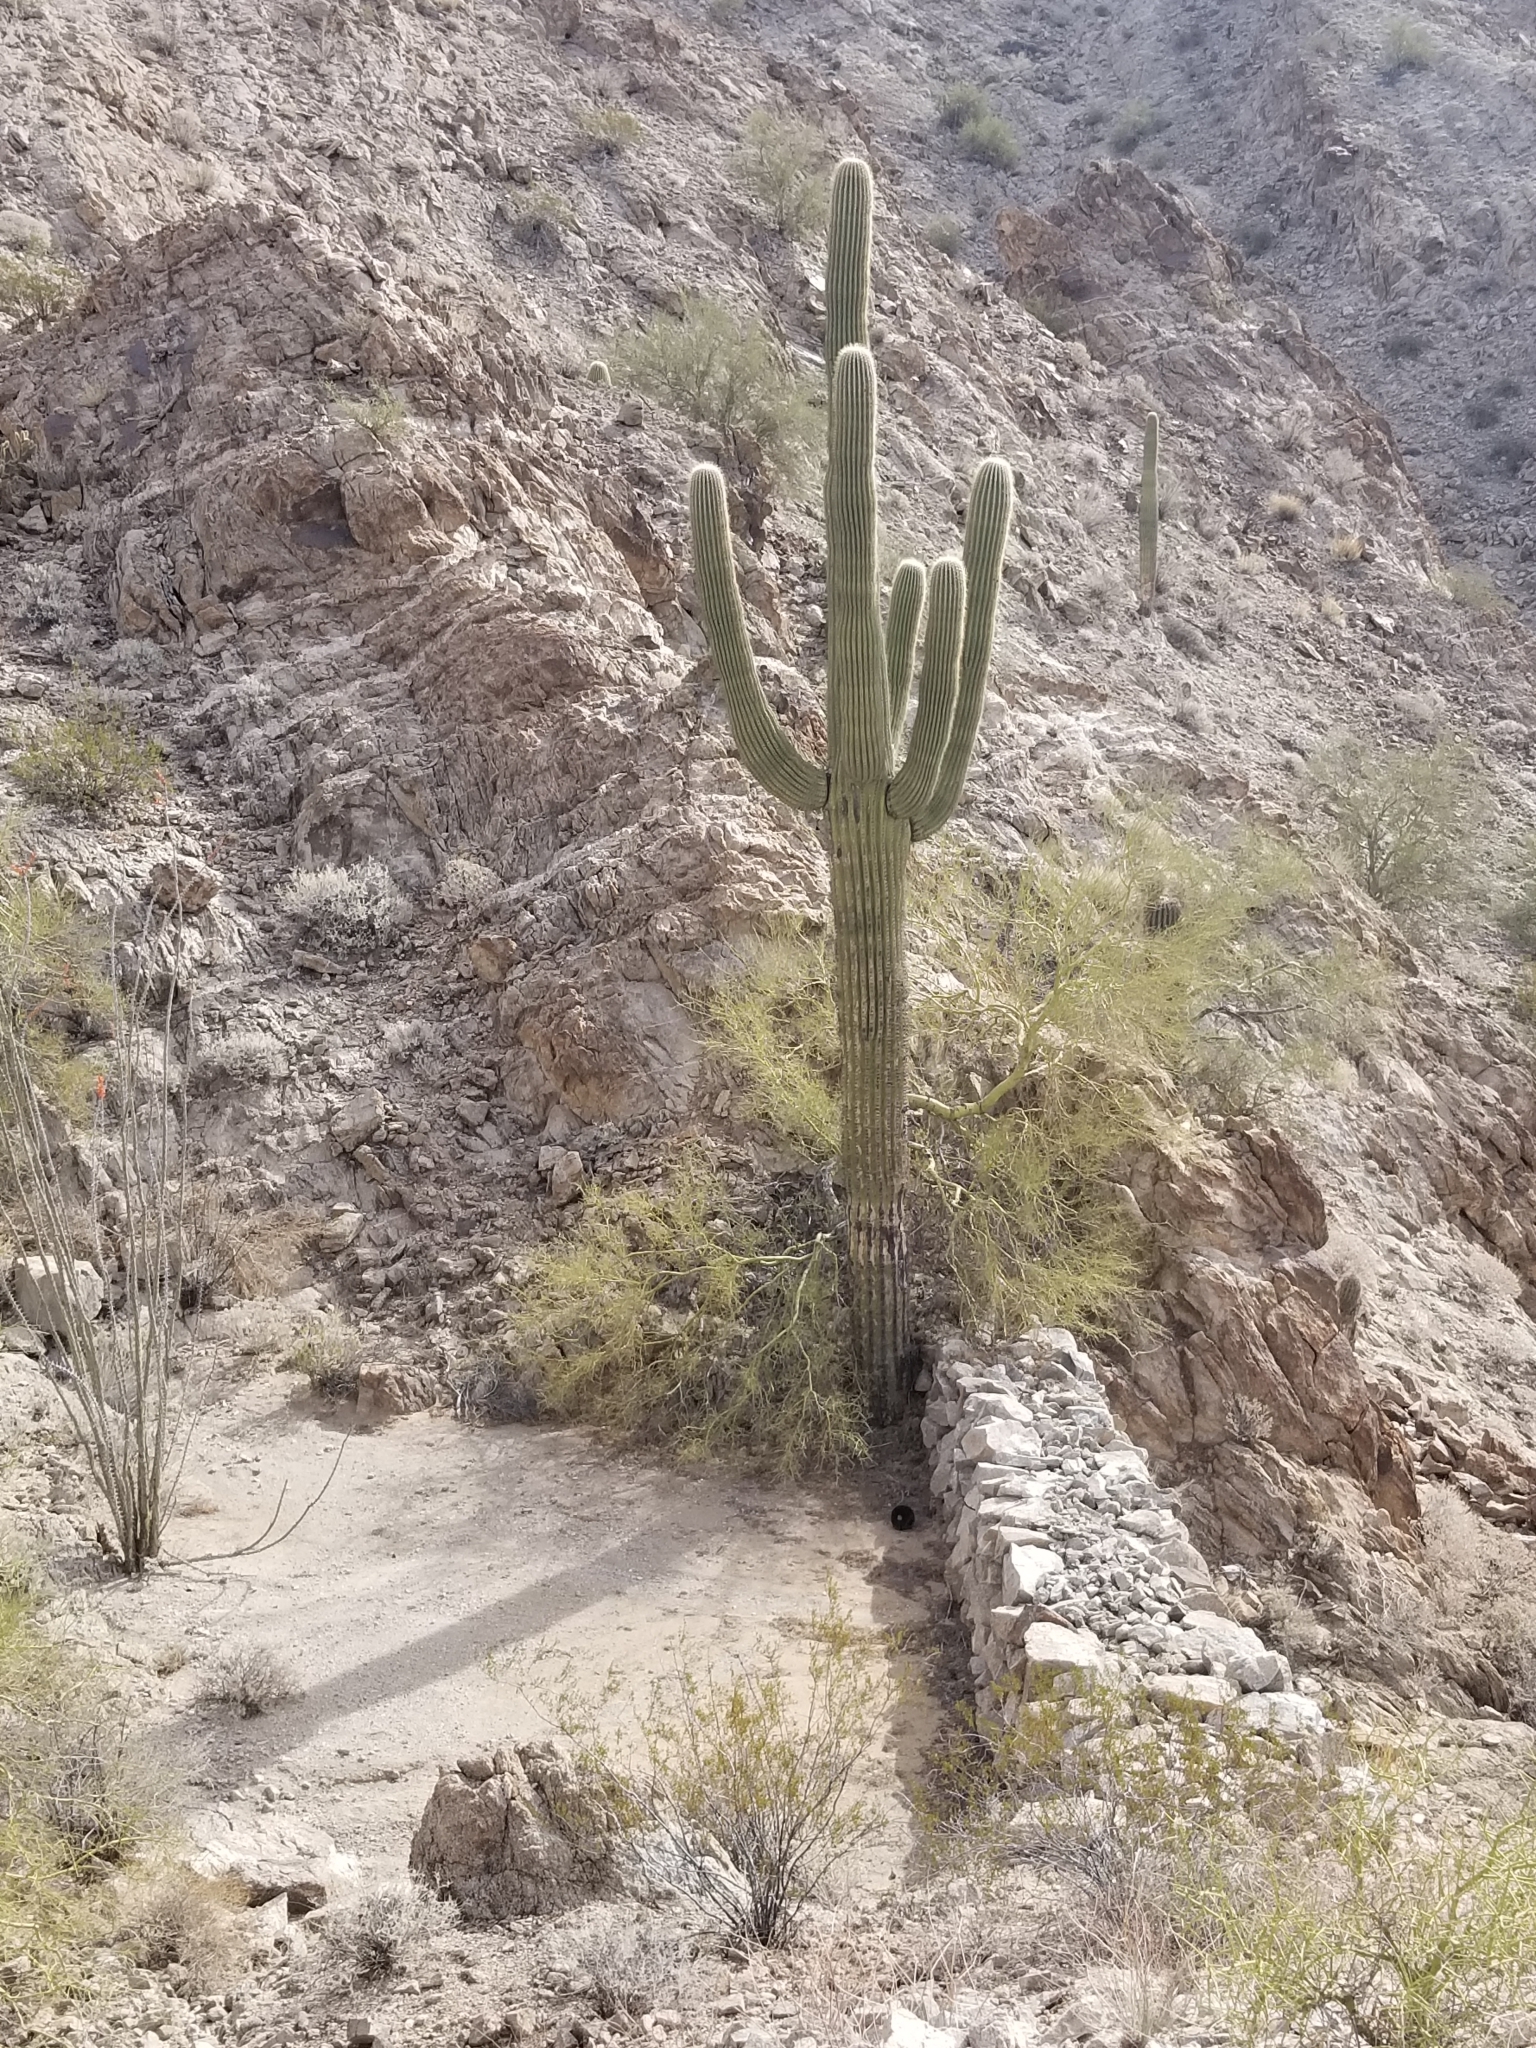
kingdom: Plantae
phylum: Tracheophyta
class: Magnoliopsida
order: Caryophyllales
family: Cactaceae
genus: Carnegiea
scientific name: Carnegiea gigantea
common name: Saguaro
